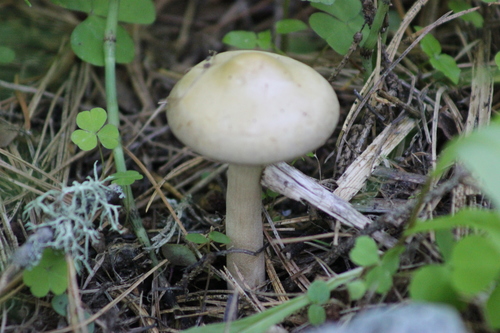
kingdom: Fungi
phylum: Basidiomycota
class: Agaricomycetes
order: Agaricales
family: Strophariaceae
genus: Agrocybe
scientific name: Agrocybe praecox
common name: Spring fieldcap
